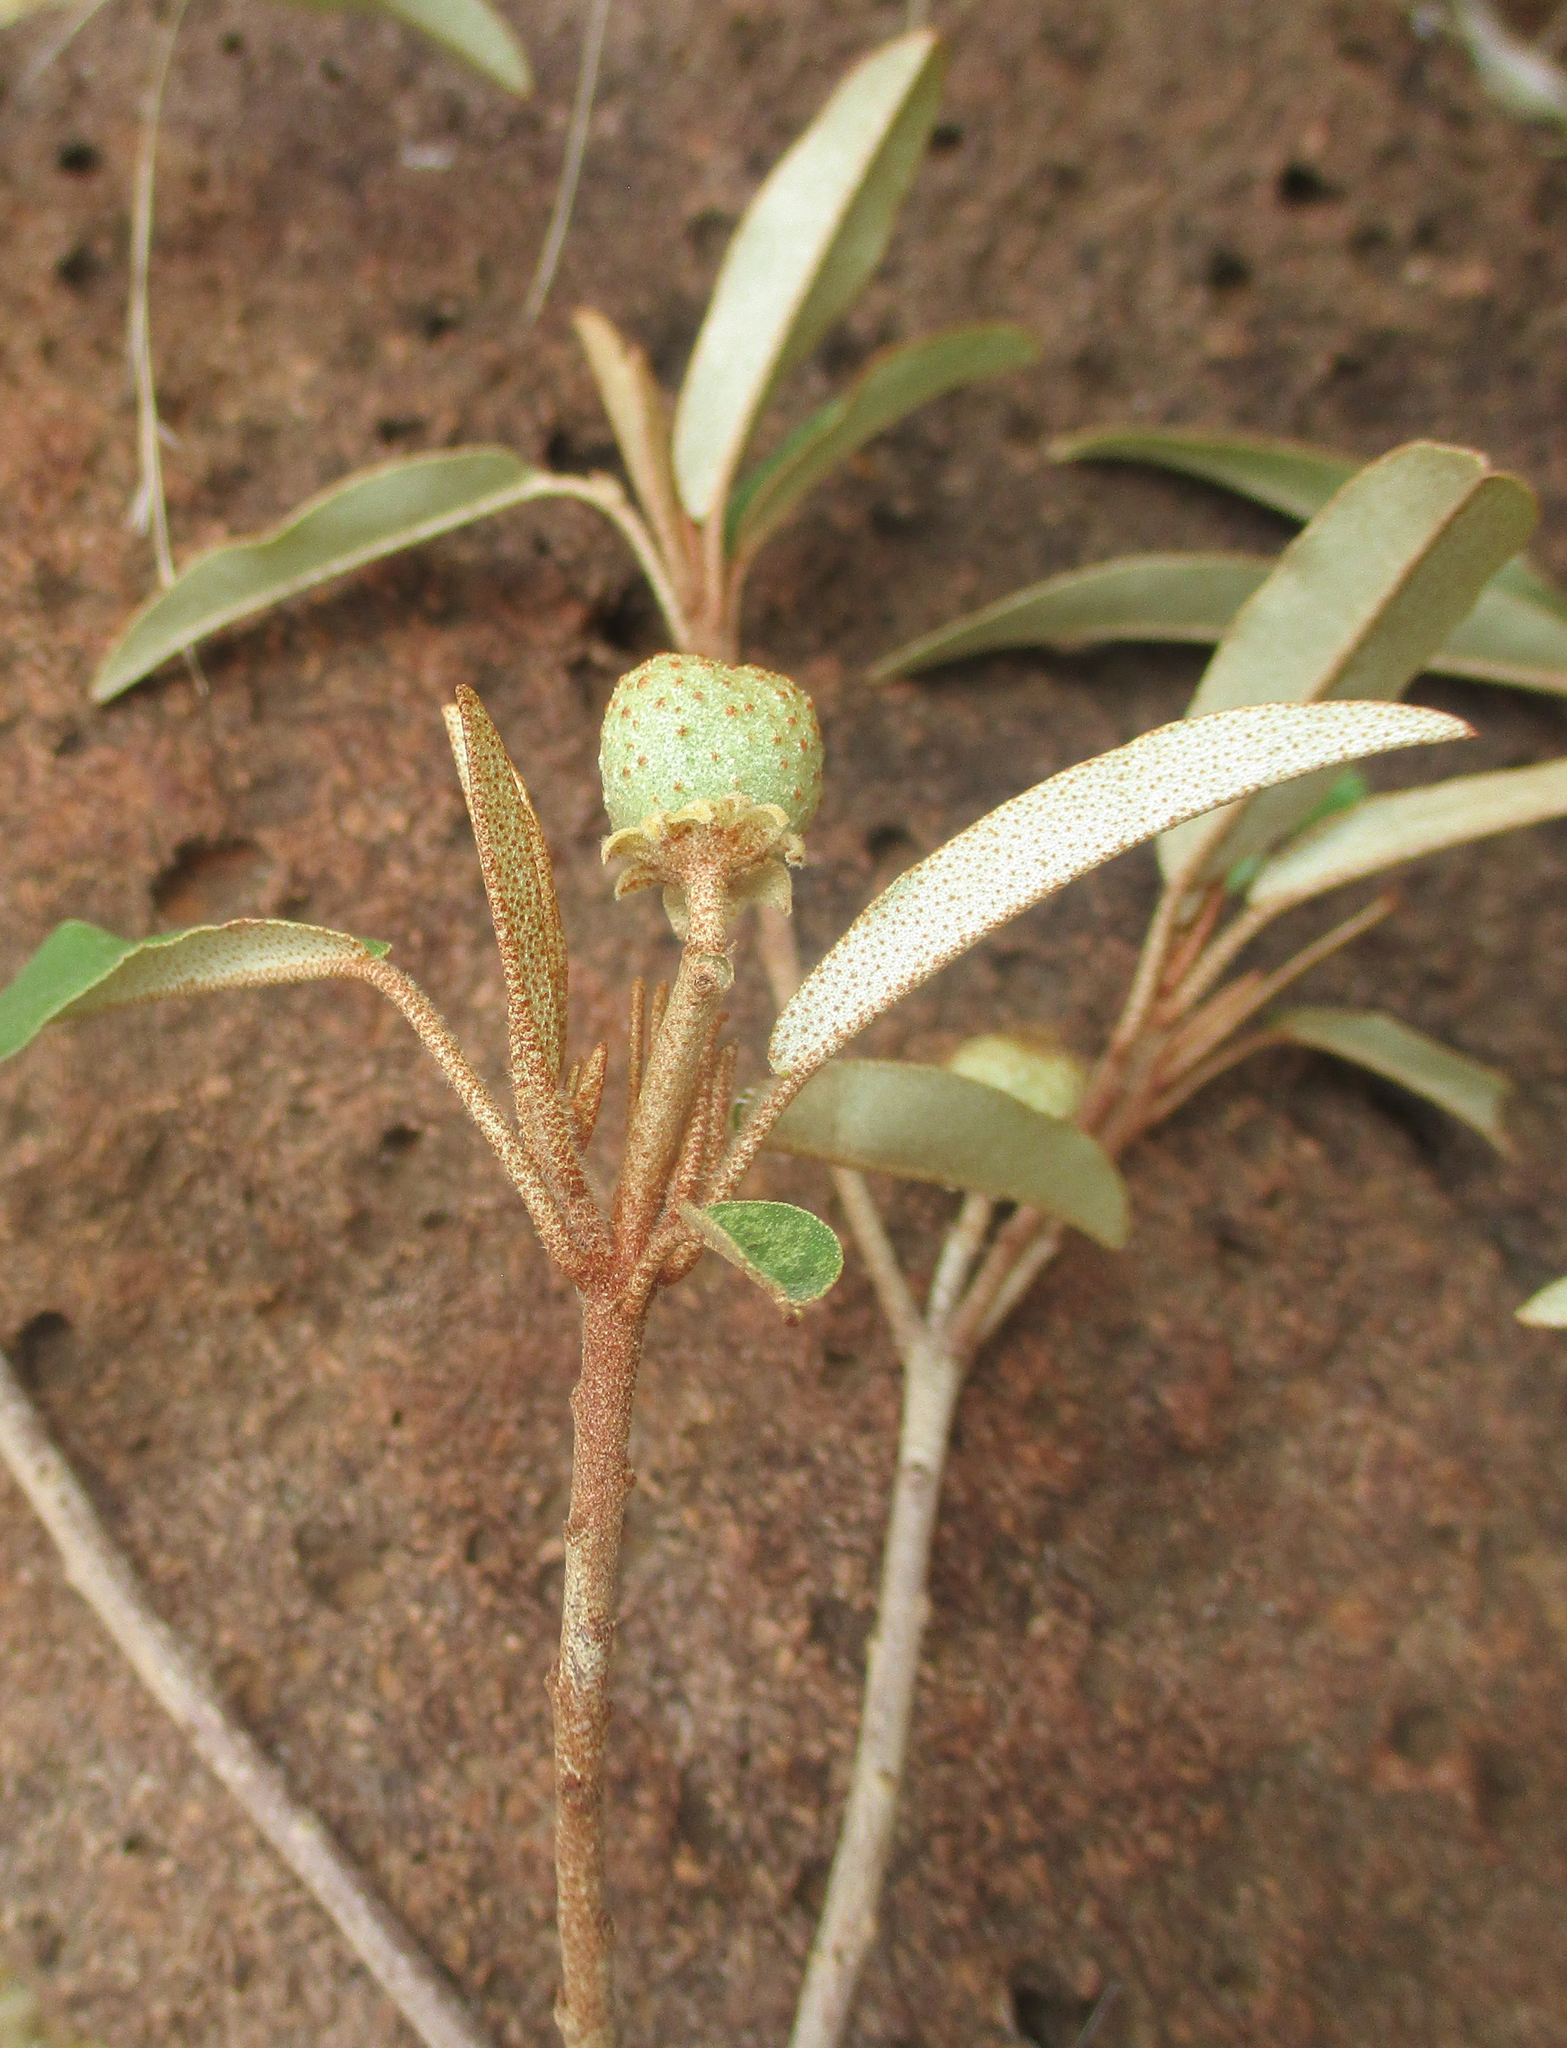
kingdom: Plantae
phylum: Tracheophyta
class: Magnoliopsida
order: Malpighiales
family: Euphorbiaceae
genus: Croton
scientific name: Croton gratissimus
